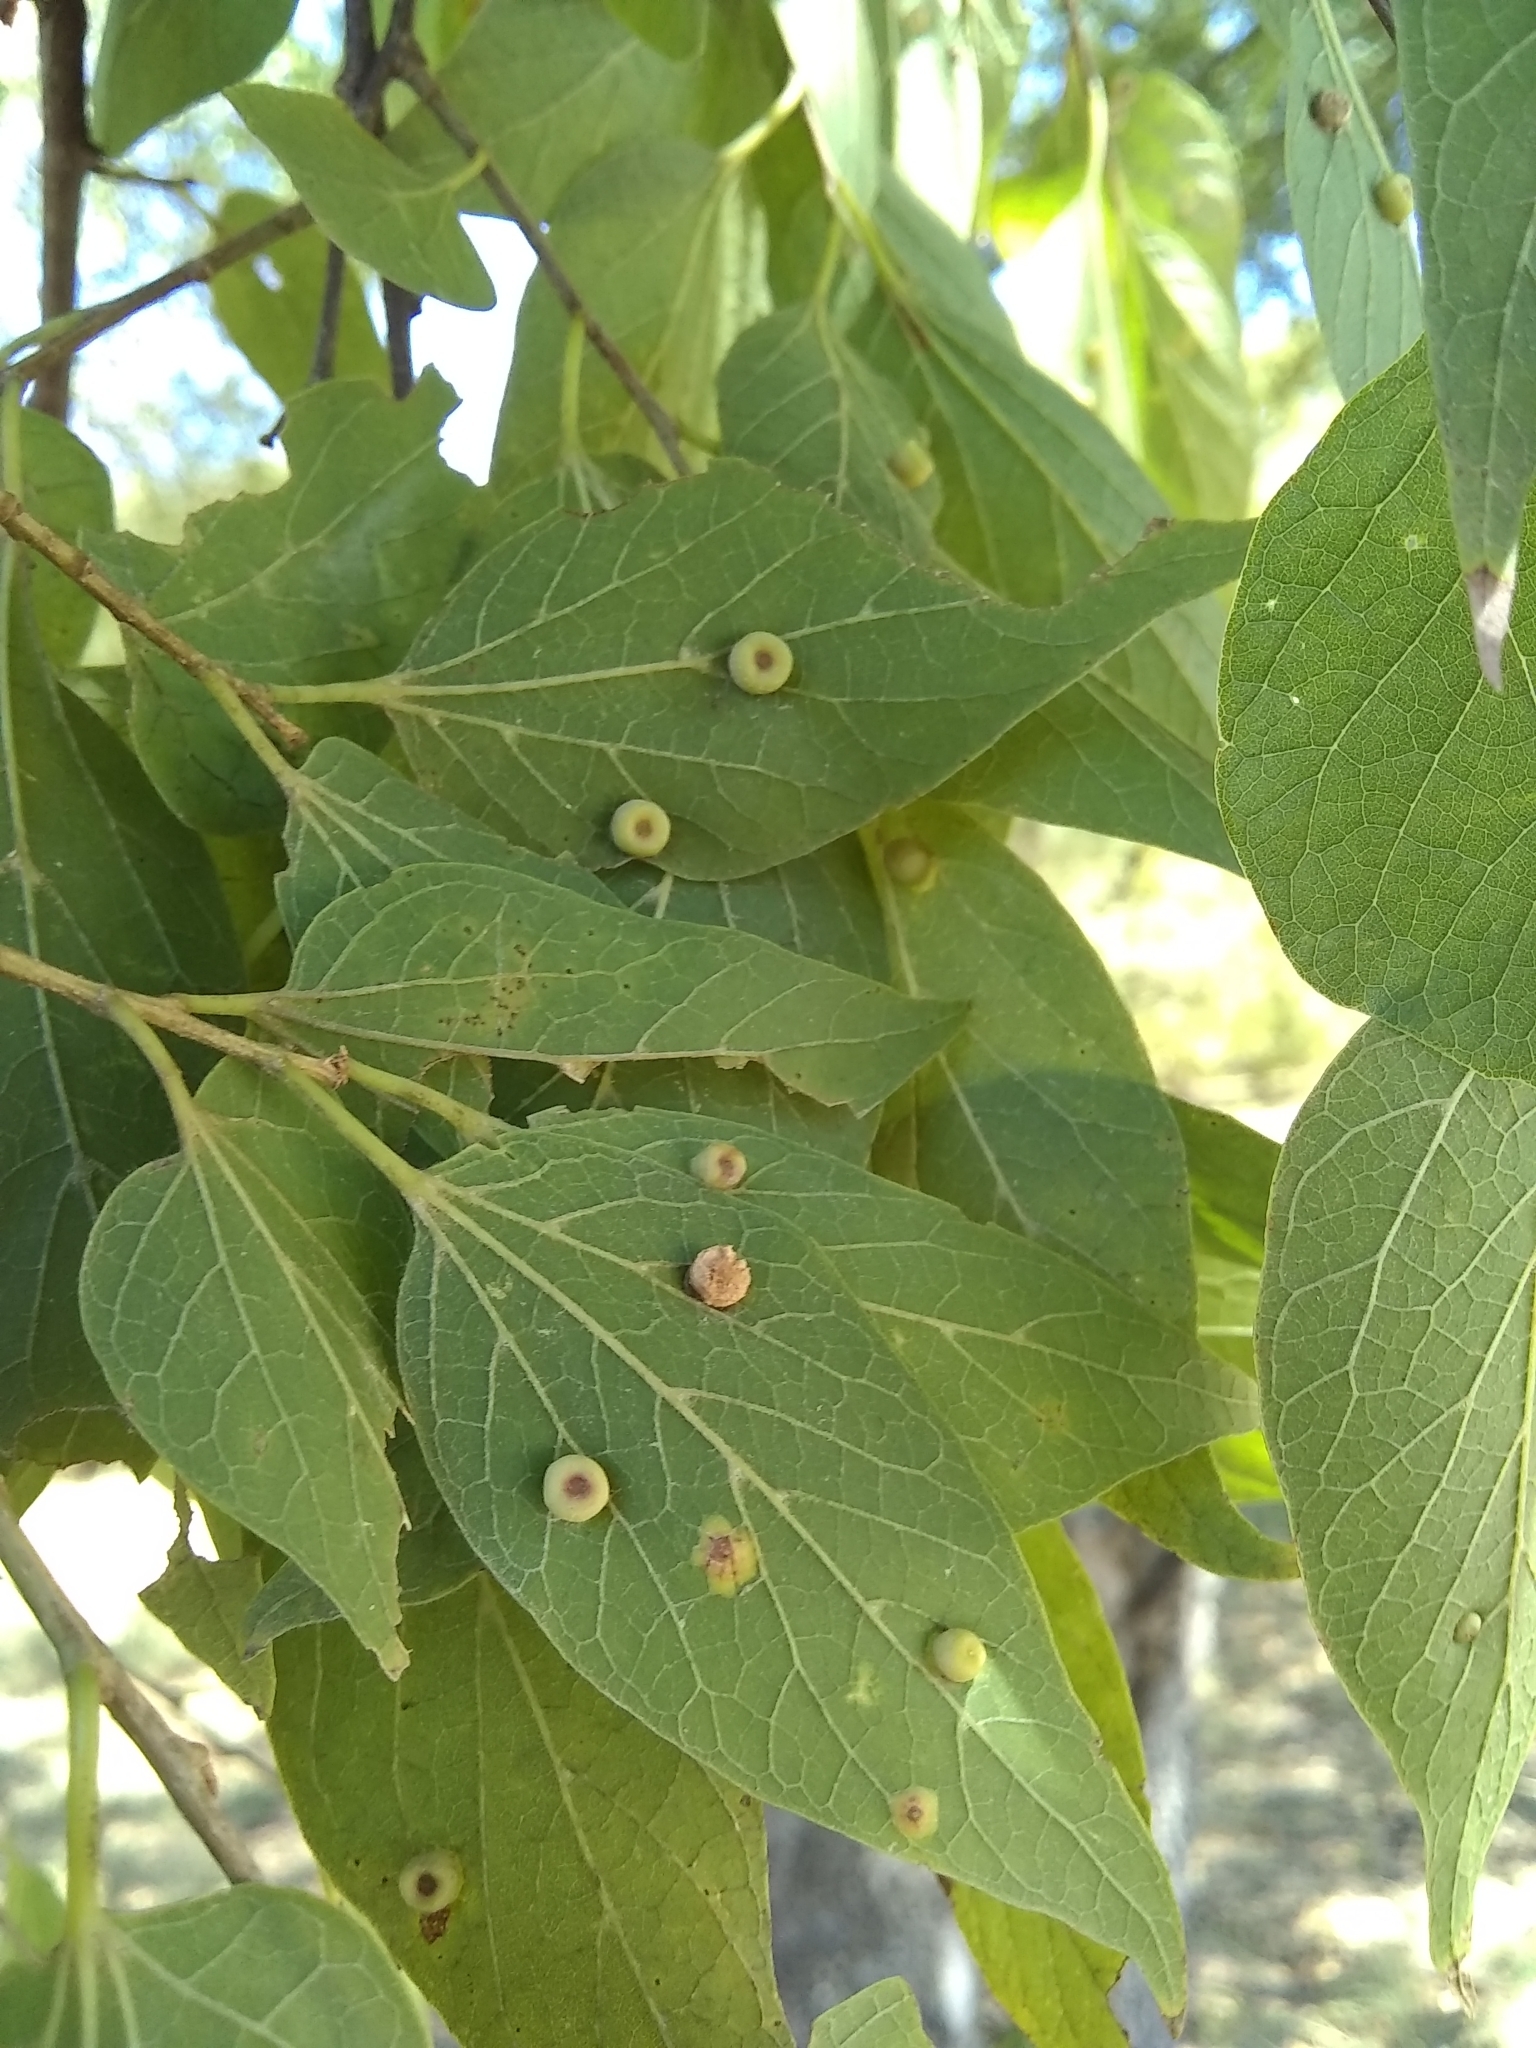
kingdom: Animalia
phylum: Arthropoda
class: Insecta
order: Hemiptera
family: Aphalaridae
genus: Pachypsylla
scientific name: Pachypsylla celtidismamma
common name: Hackberry nipplegall psyllid
